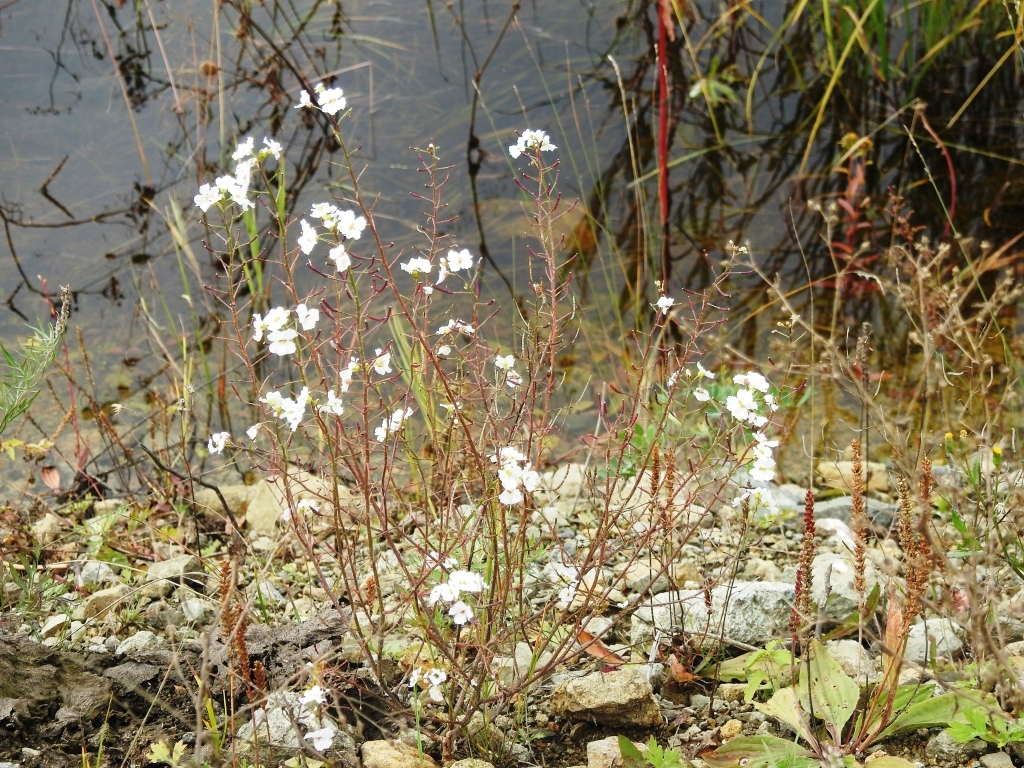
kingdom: Plantae
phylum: Tracheophyta
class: Magnoliopsida
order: Brassicales
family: Brassicaceae
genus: Dontostemon
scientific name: Dontostemon pinnatifidus
